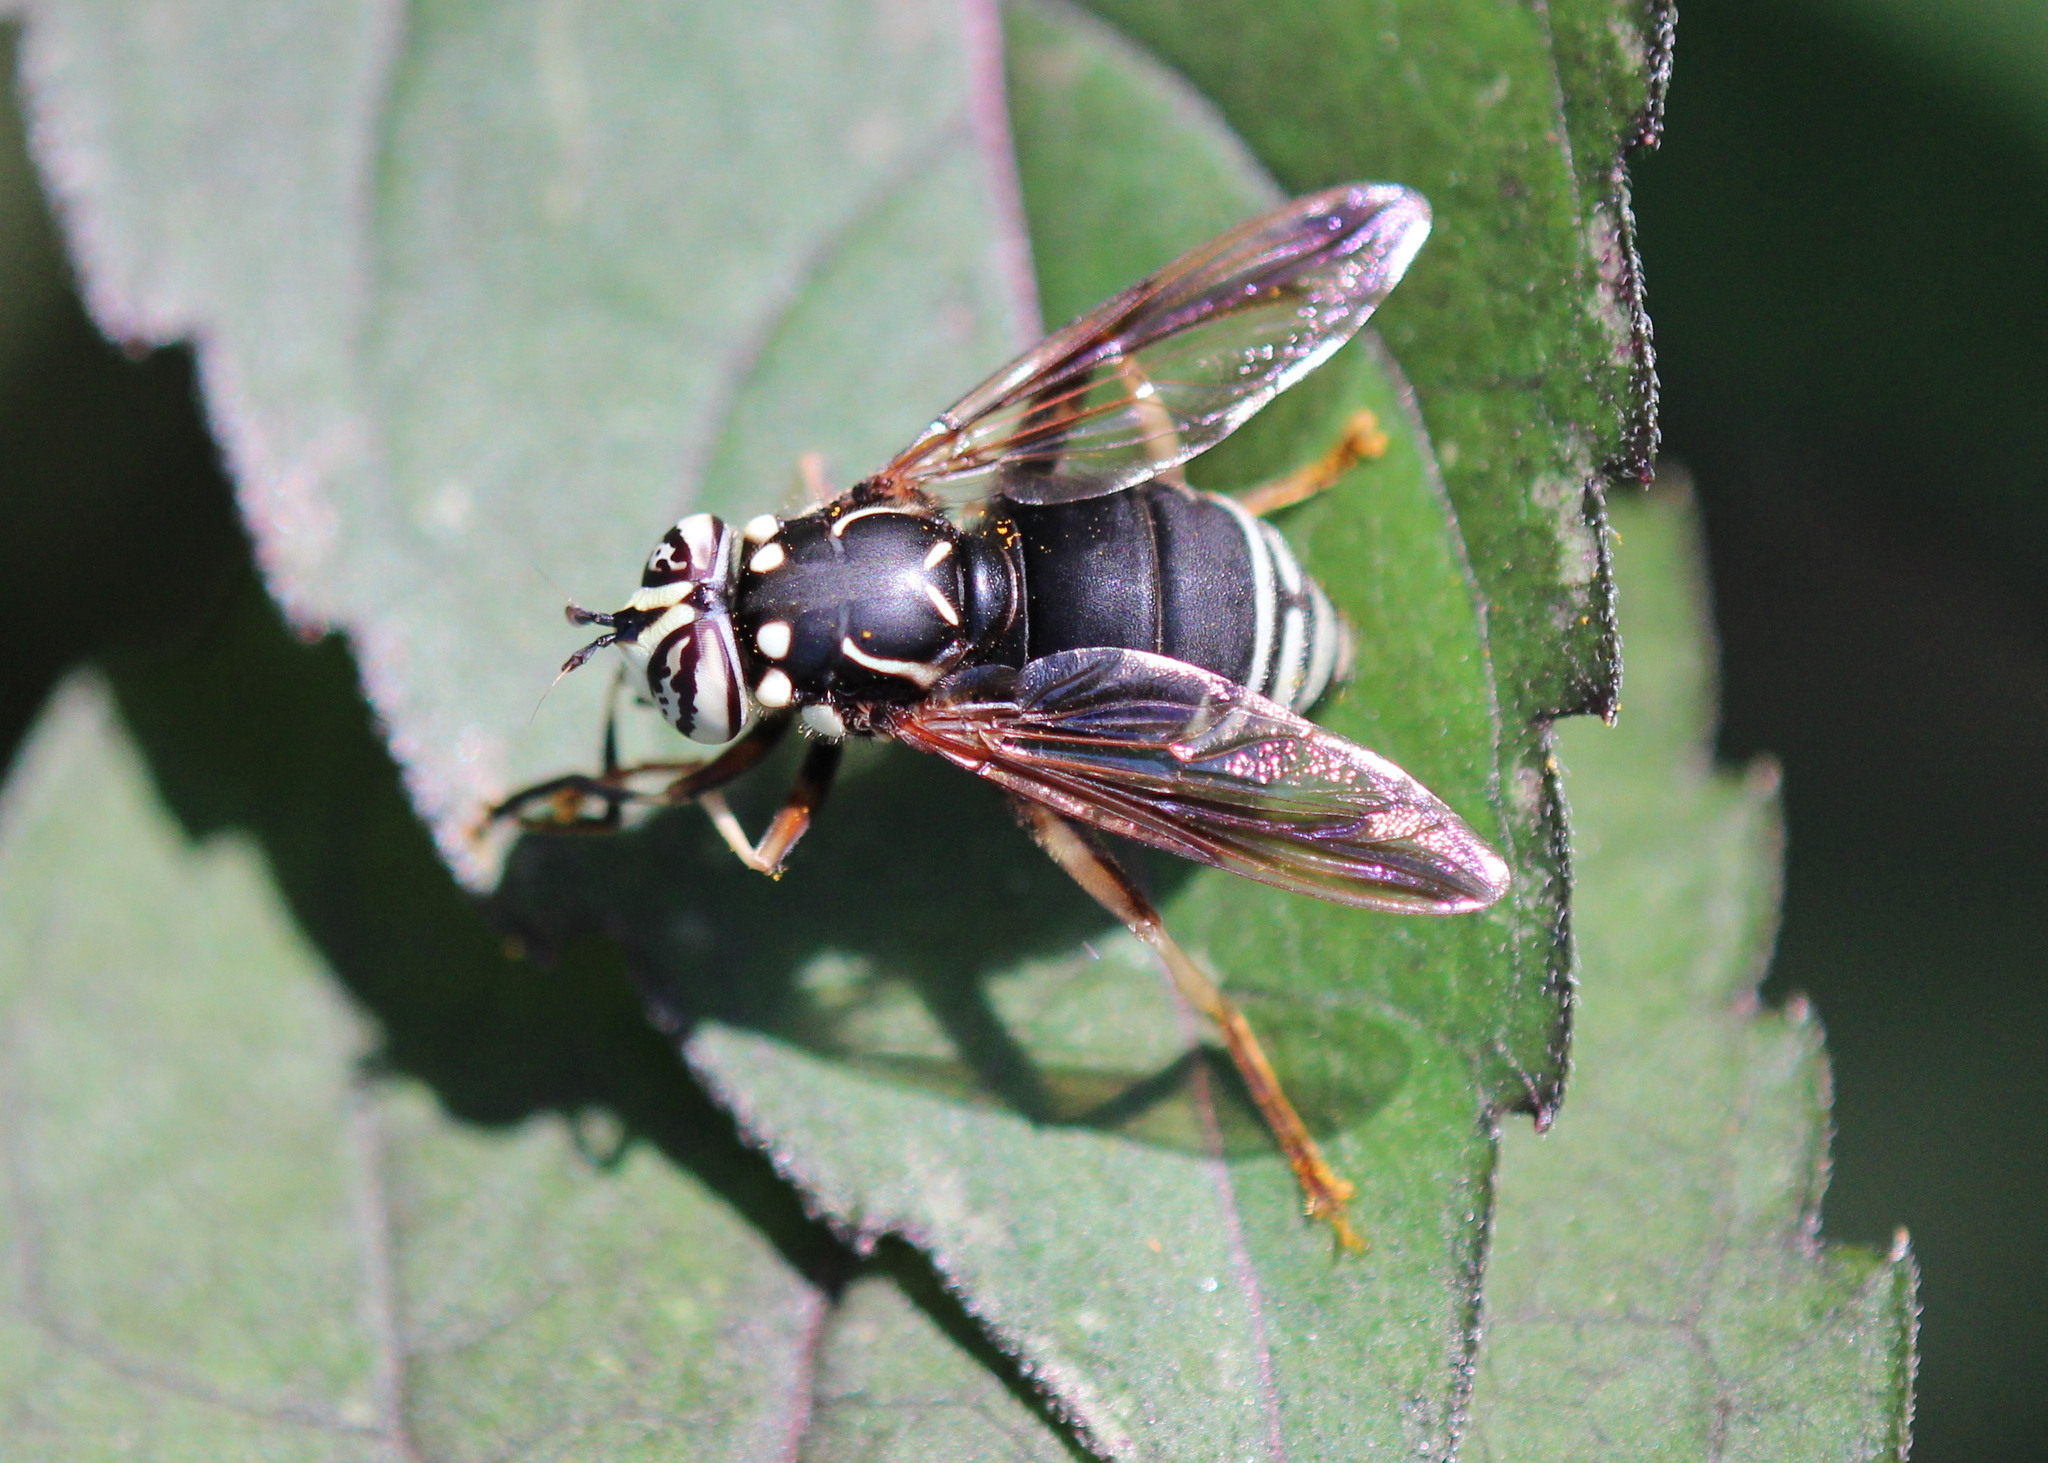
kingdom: Animalia
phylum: Arthropoda
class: Insecta
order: Diptera
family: Syrphidae
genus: Spilomyia
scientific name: Spilomyia fusca
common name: Bald-faced hornet fly
